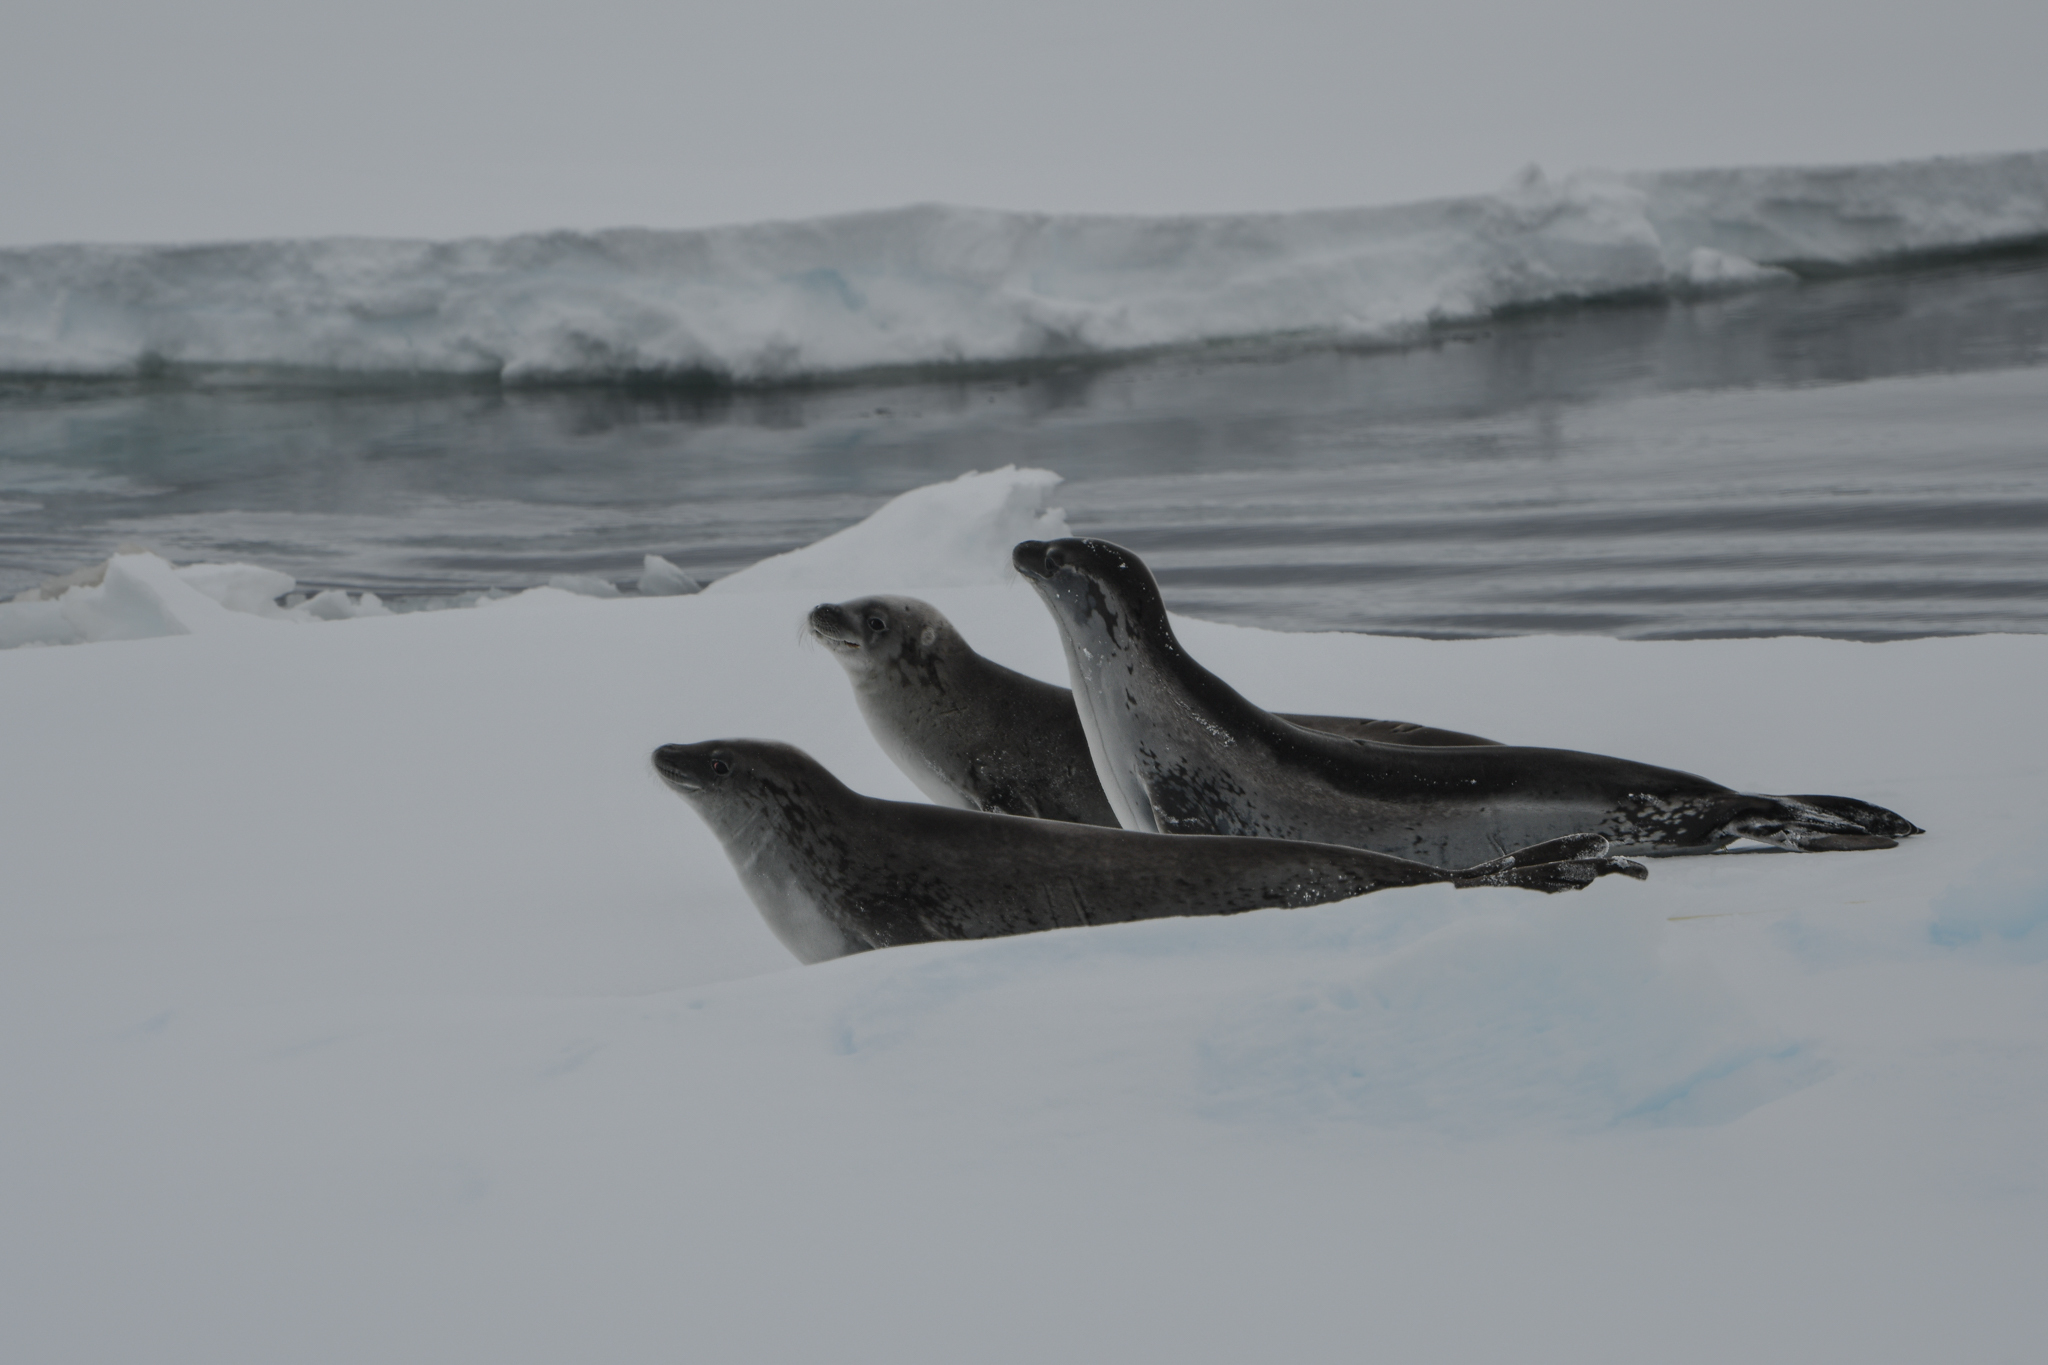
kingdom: Animalia
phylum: Chordata
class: Mammalia
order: Carnivora
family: Phocidae
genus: Lobodon
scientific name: Lobodon carcinophaga
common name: Crabeater seal
